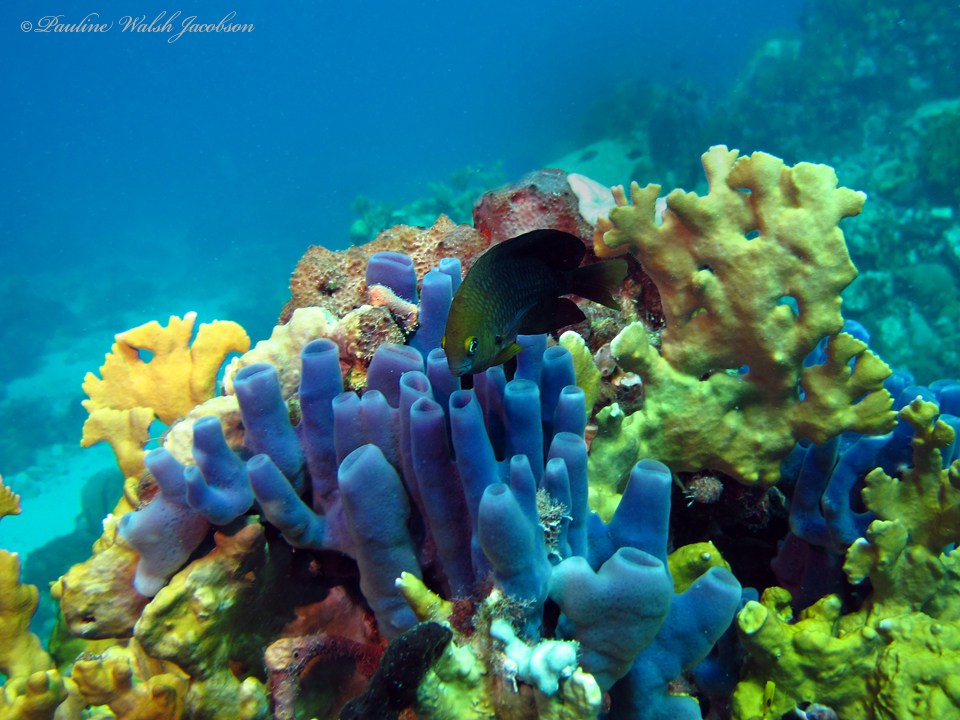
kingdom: Animalia
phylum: Chordata
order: Perciformes
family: Pomacentridae
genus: Stegastes
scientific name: Stegastes planifrons
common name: Threespot damselfish
